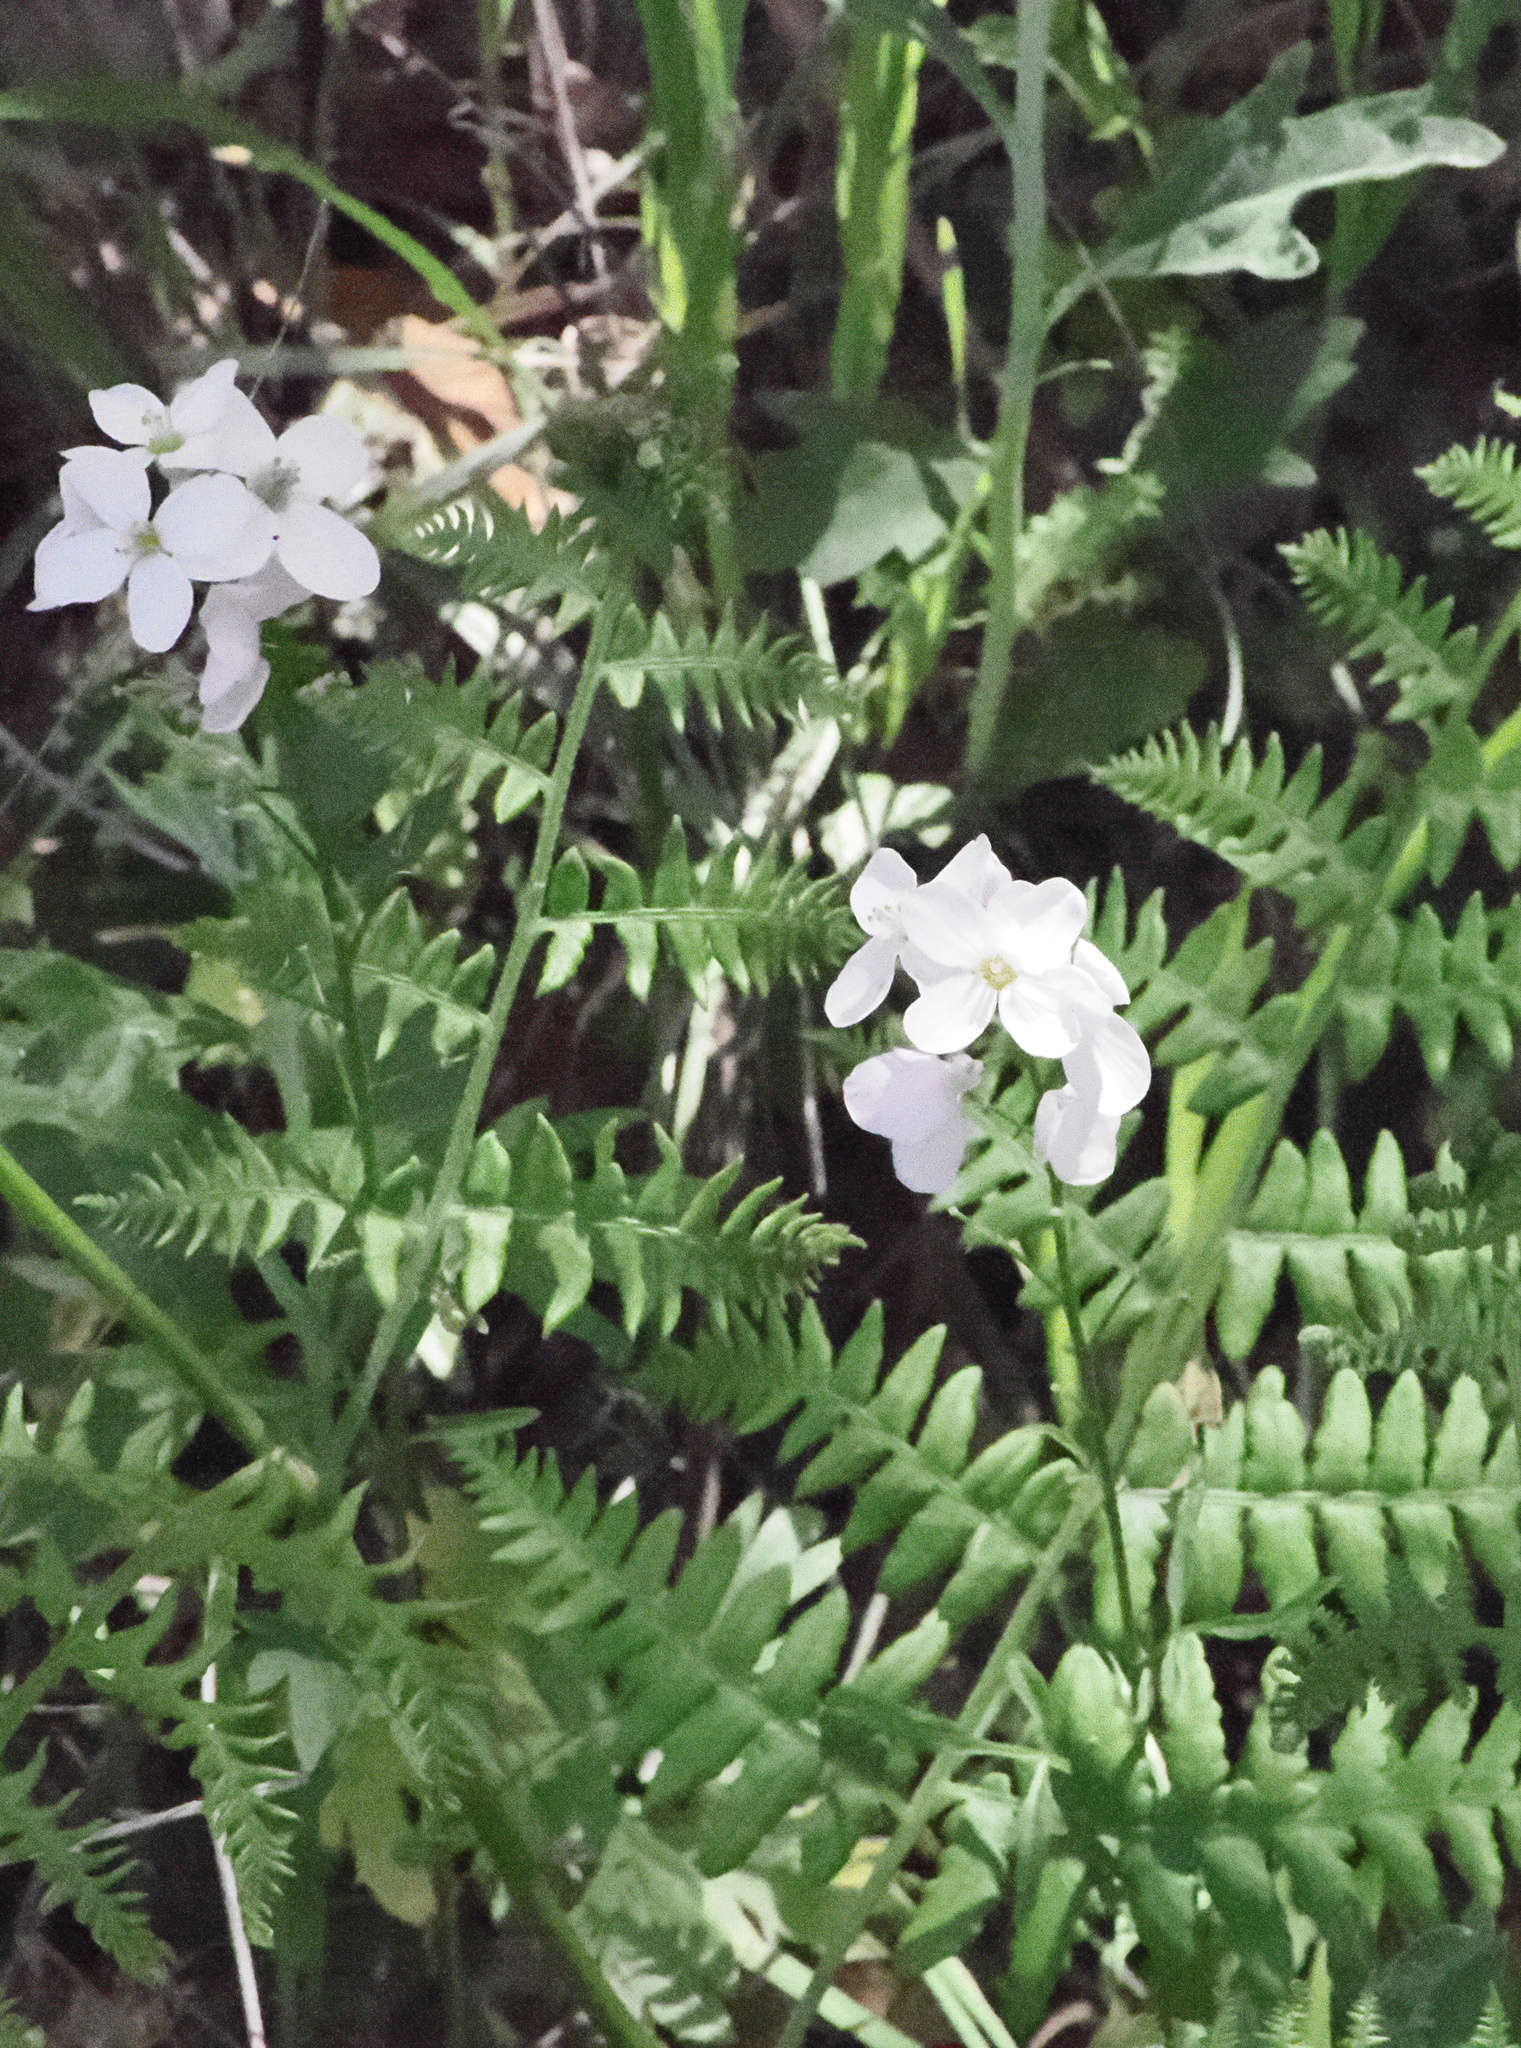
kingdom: Plantae
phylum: Tracheophyta
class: Magnoliopsida
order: Brassicales
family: Brassicaceae
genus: Cardamine
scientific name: Cardamine californica
